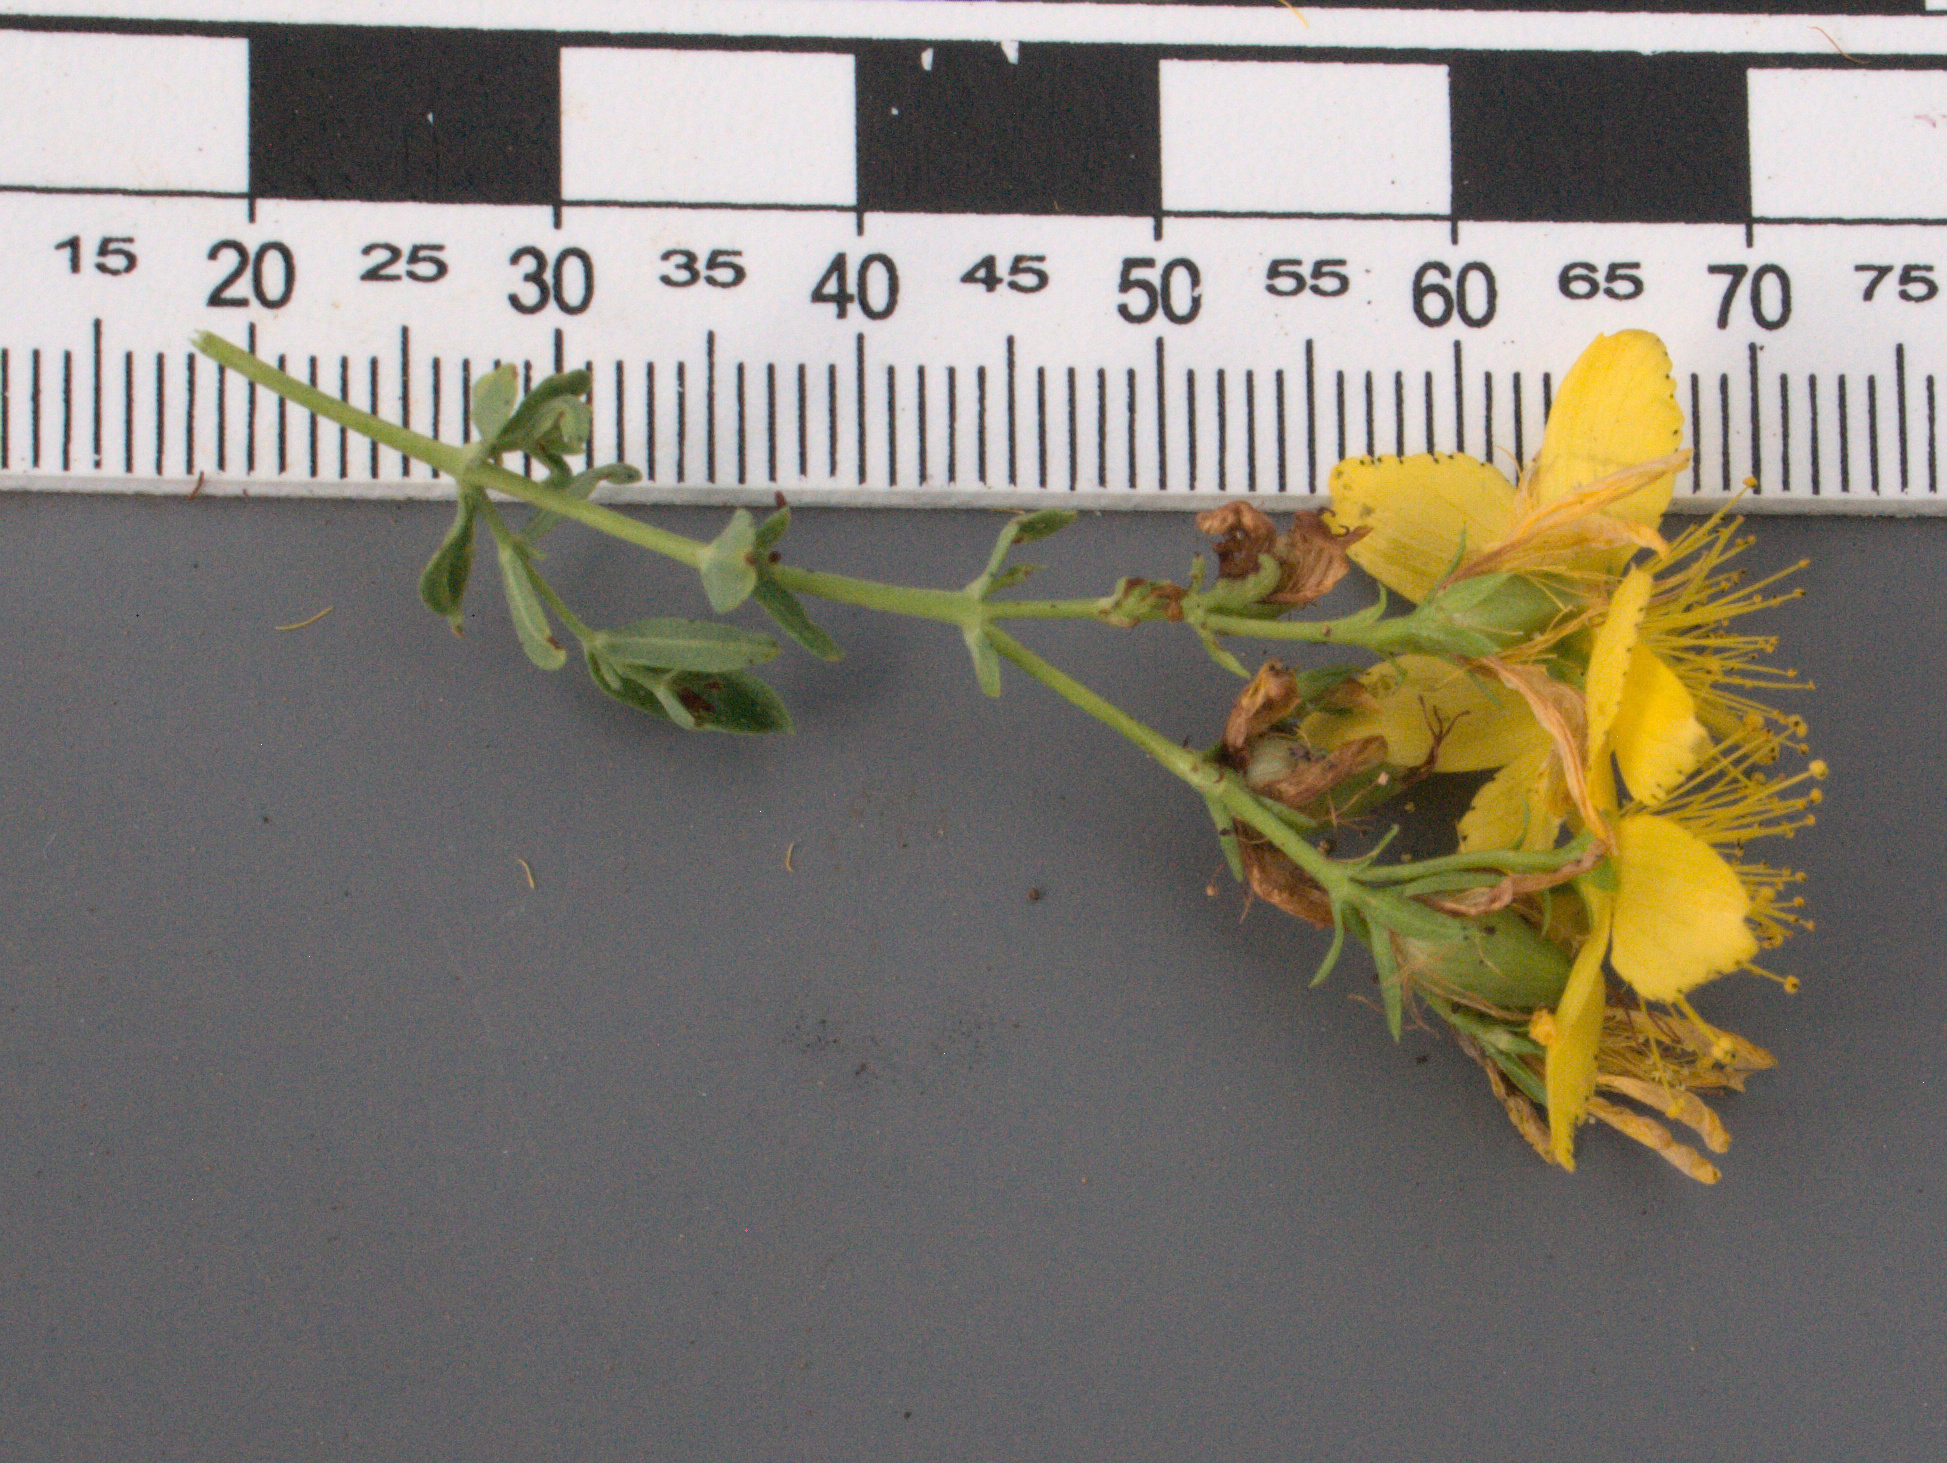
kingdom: Plantae
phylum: Tracheophyta
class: Magnoliopsida
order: Malpighiales
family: Hypericaceae
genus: Hypericum
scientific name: Hypericum perforatum
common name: Common st. johnswort
